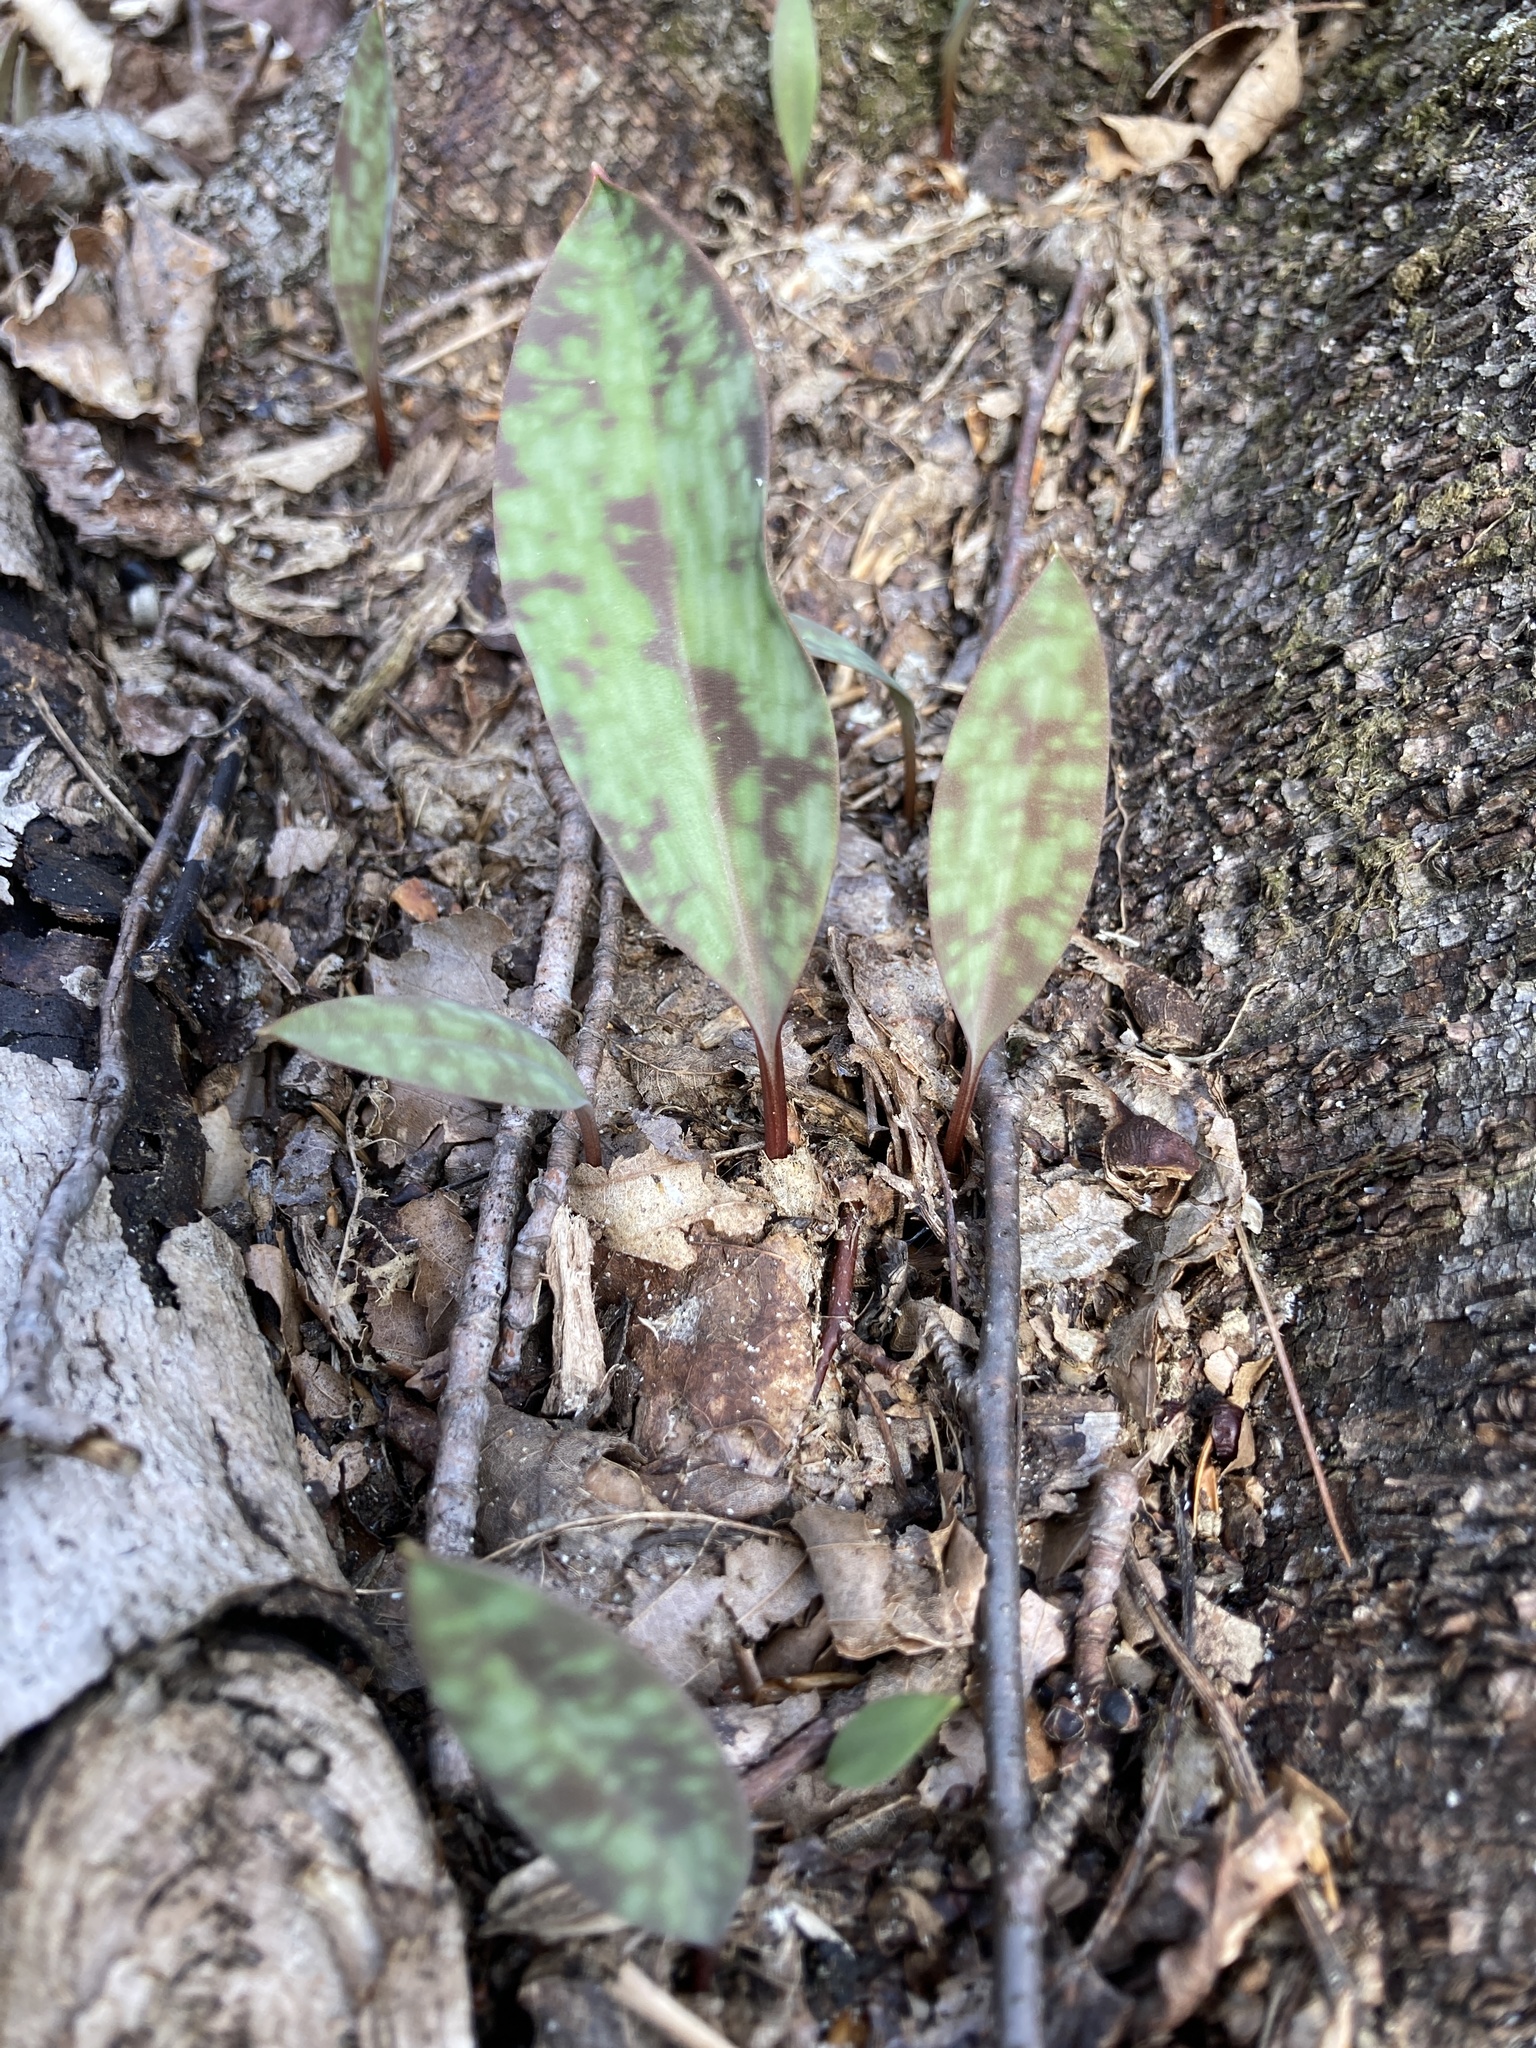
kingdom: Plantae
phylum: Tracheophyta
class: Liliopsida
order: Liliales
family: Liliaceae
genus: Erythronium
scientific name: Erythronium americanum
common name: Yellow adder's-tongue
